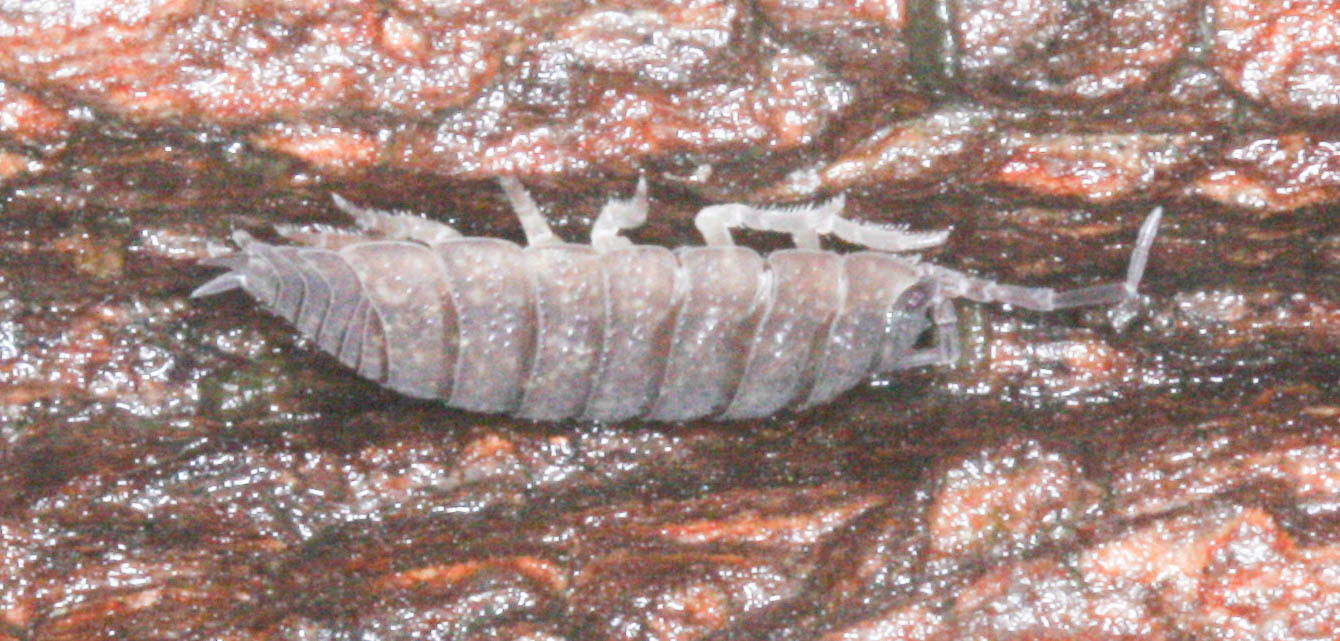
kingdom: Animalia
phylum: Arthropoda
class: Malacostraca
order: Isopoda
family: Porcellionidae
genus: Porcellio
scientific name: Porcellio scaber
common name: Common rough woodlouse
